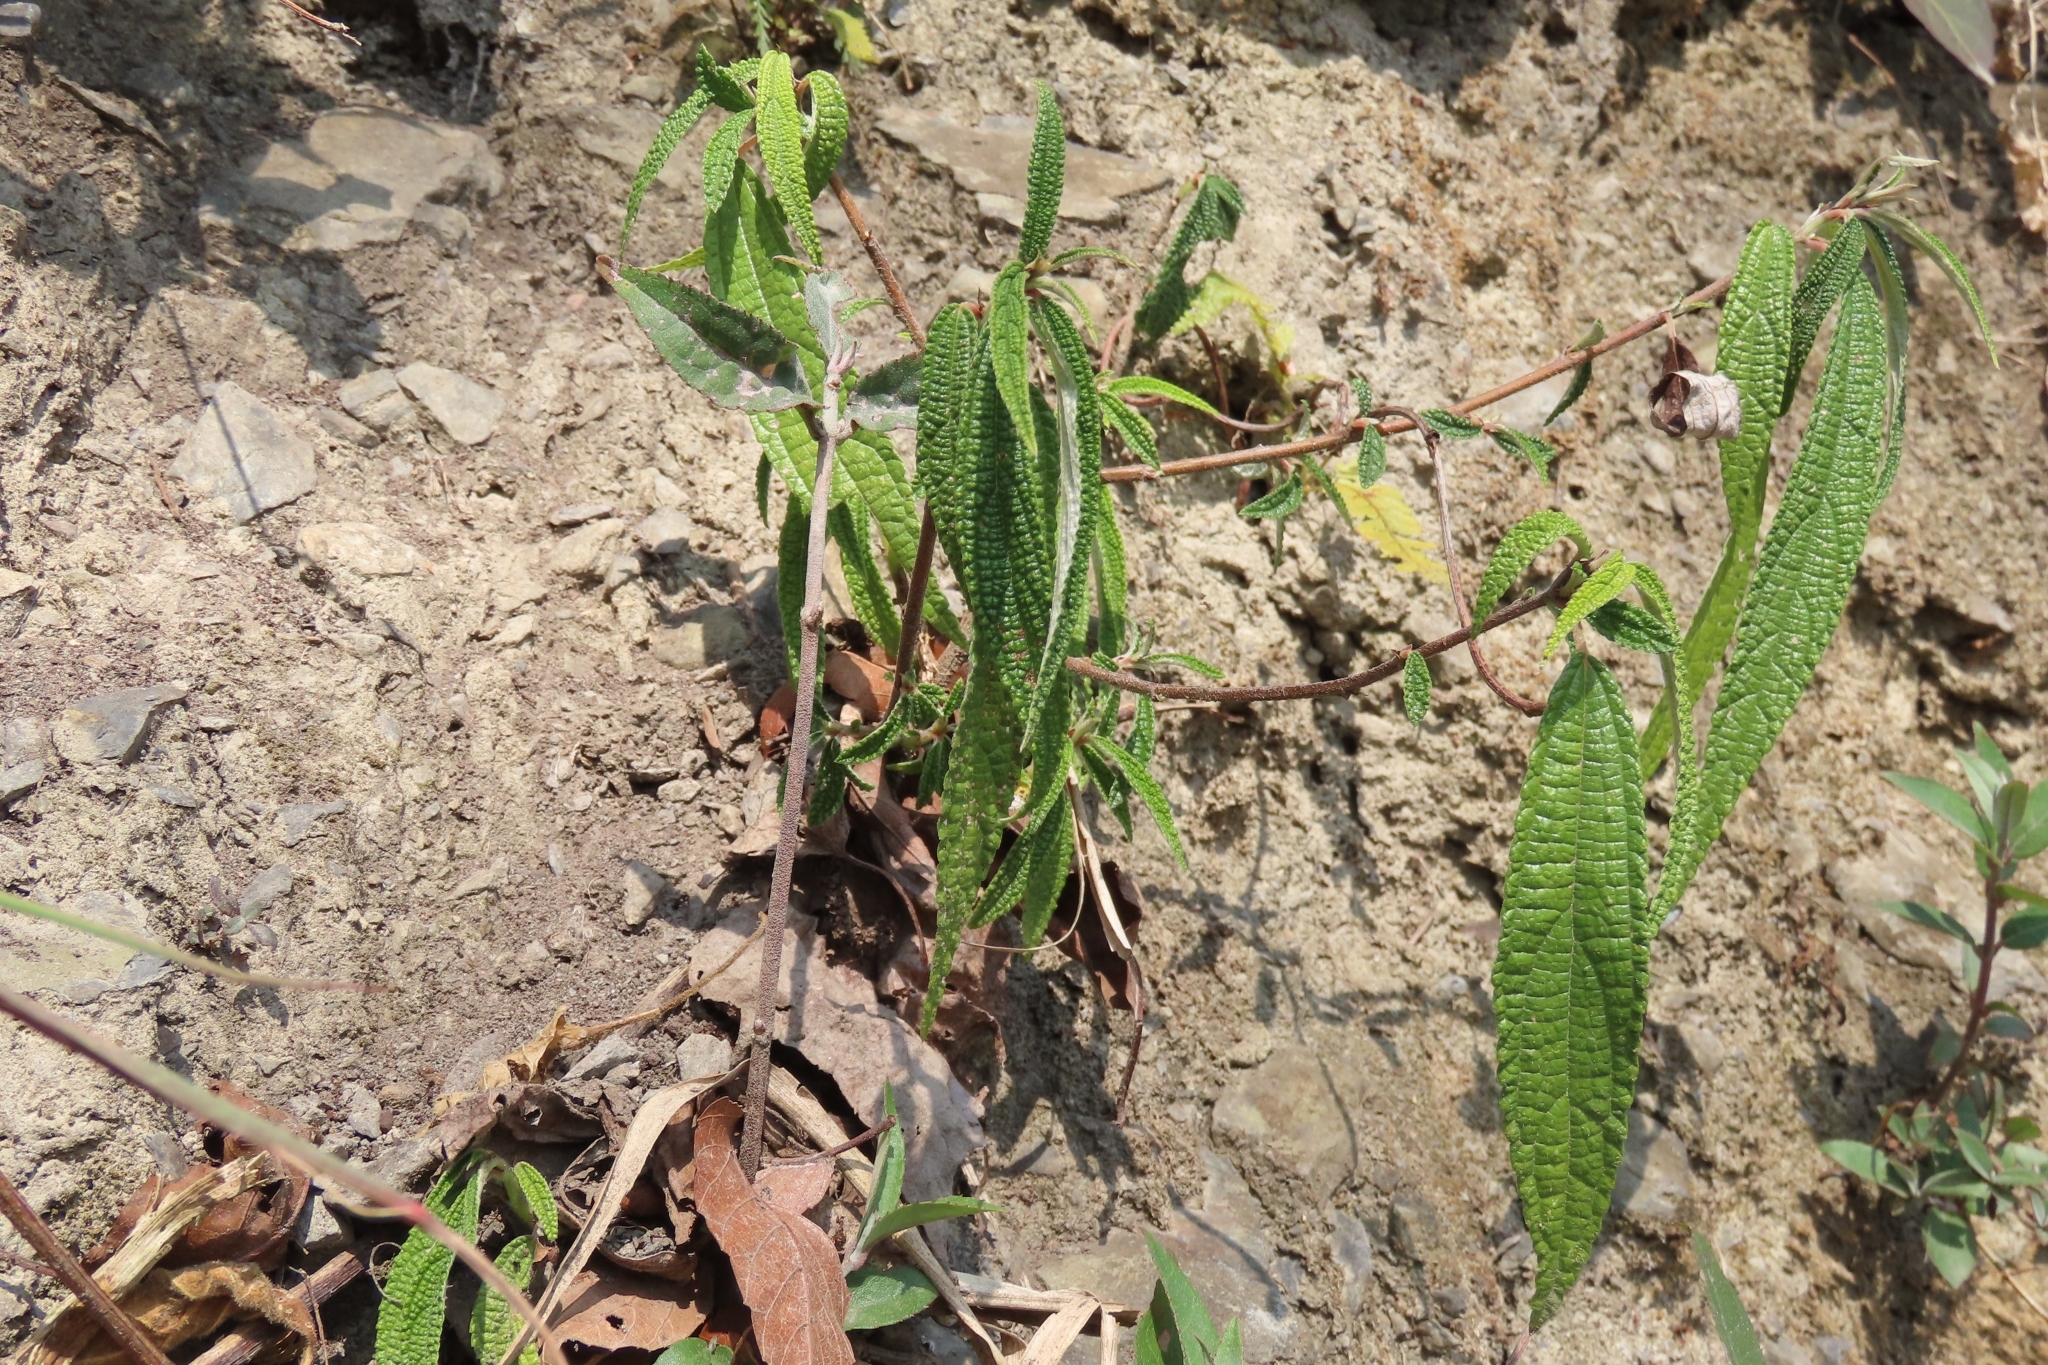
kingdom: Plantae
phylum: Tracheophyta
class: Magnoliopsida
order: Rosales
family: Urticaceae
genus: Debregeasia
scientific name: Debregeasia orientalis
